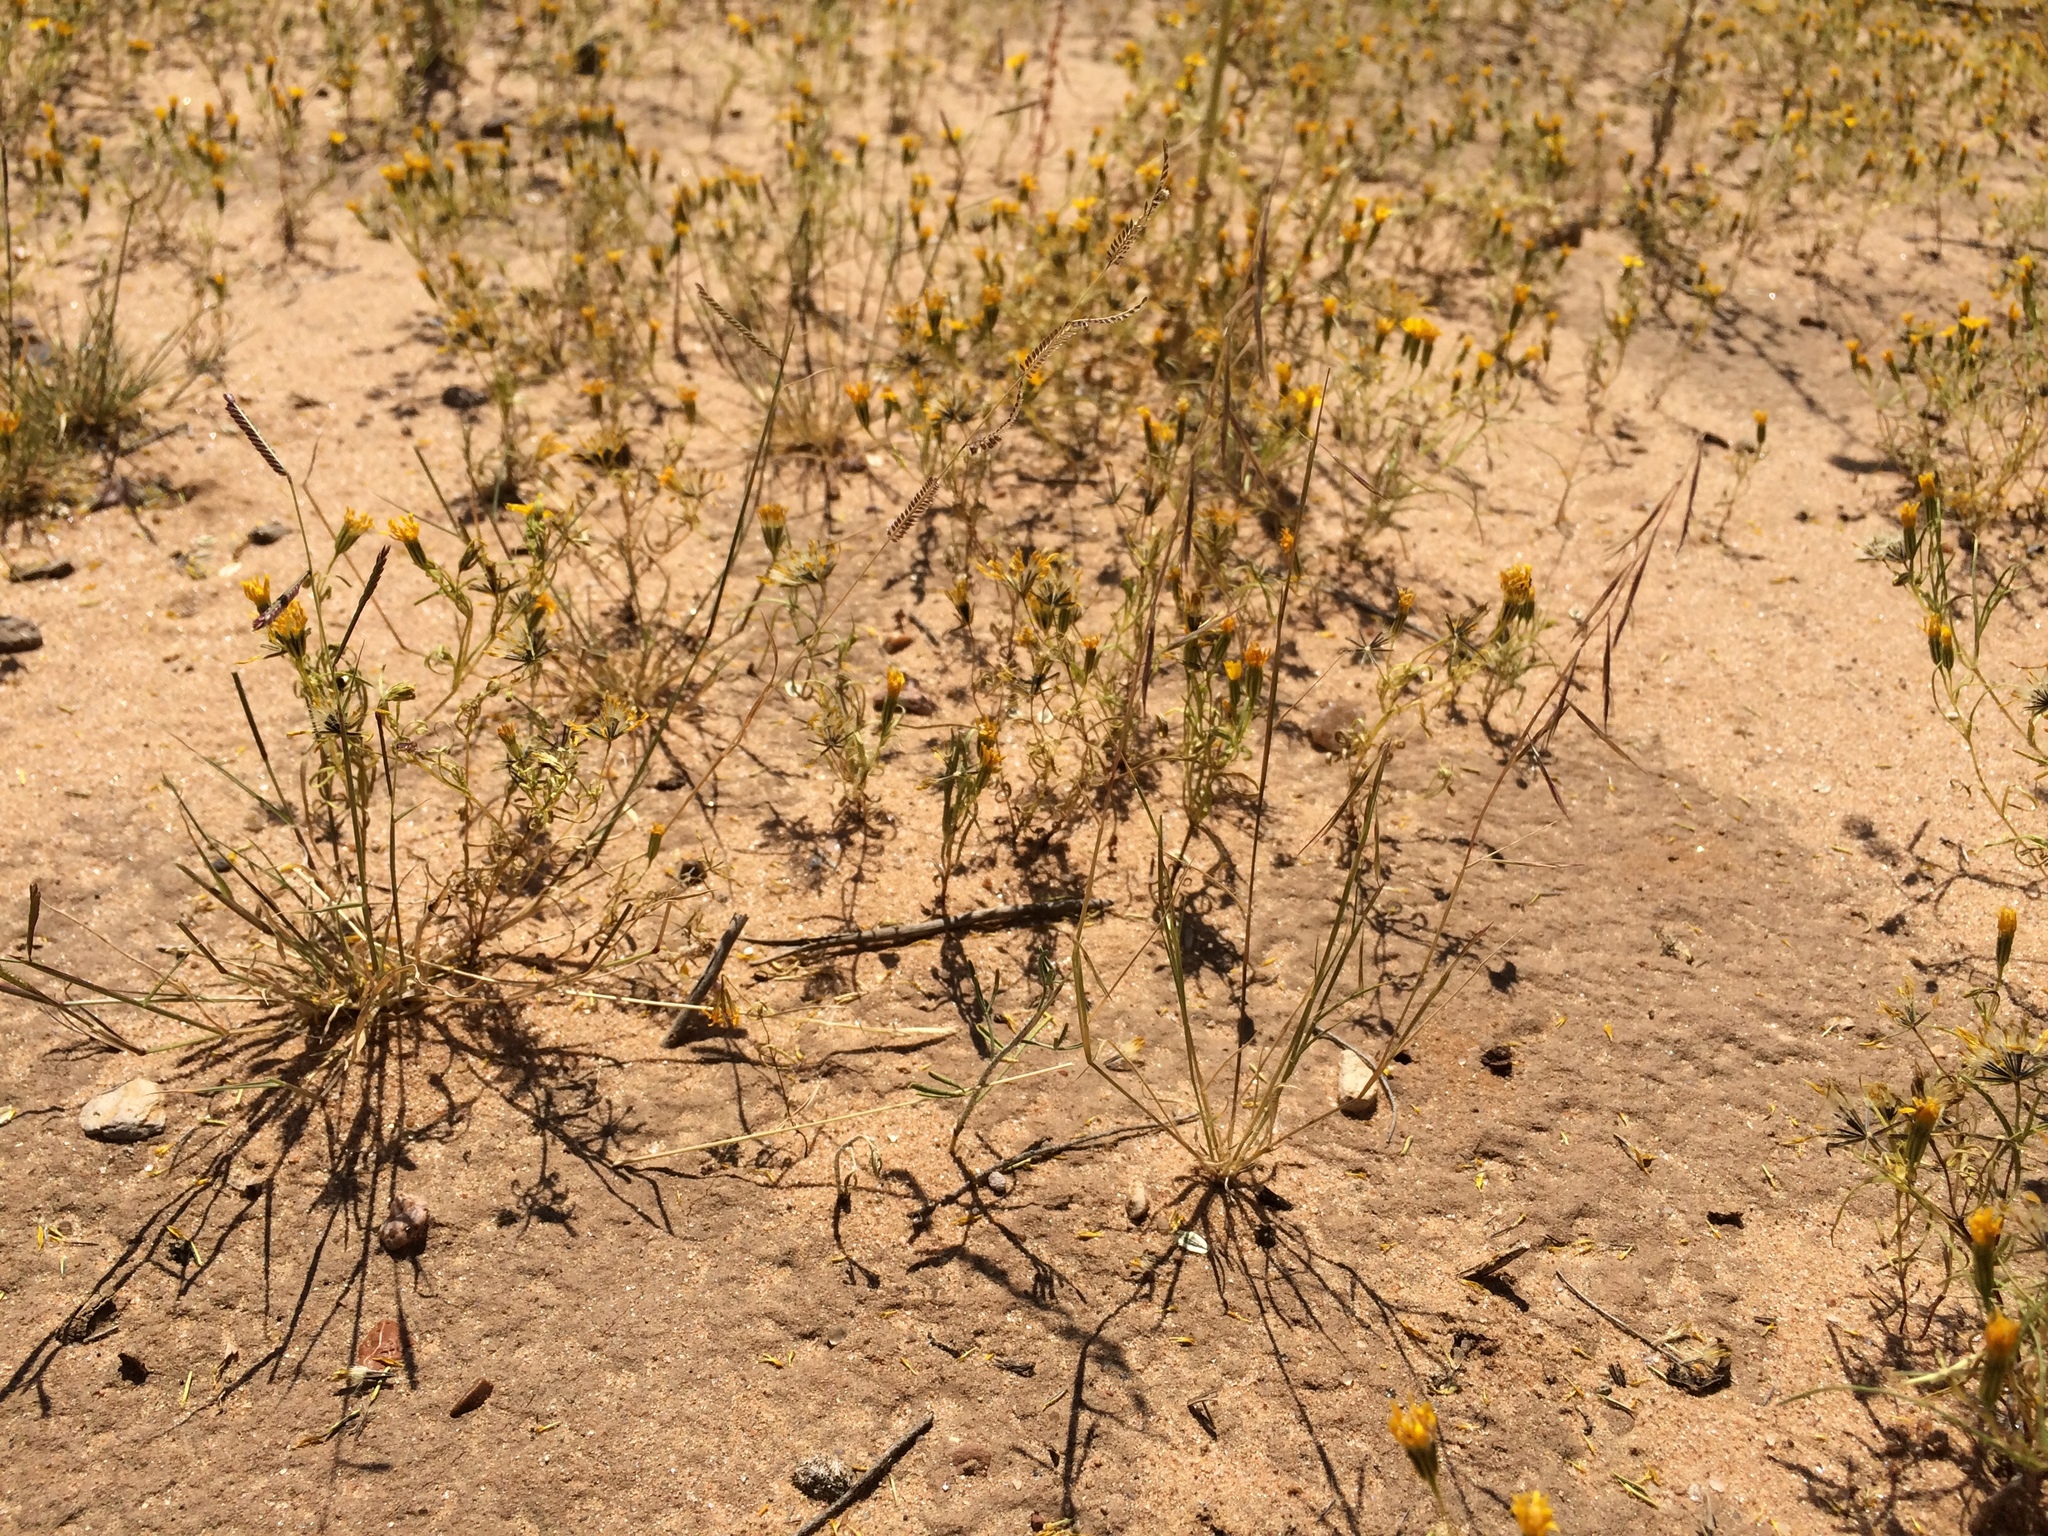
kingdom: Plantae
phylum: Tracheophyta
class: Liliopsida
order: Poales
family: Poaceae
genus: Bouteloua
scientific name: Bouteloua aristidoides
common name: Needle grama
